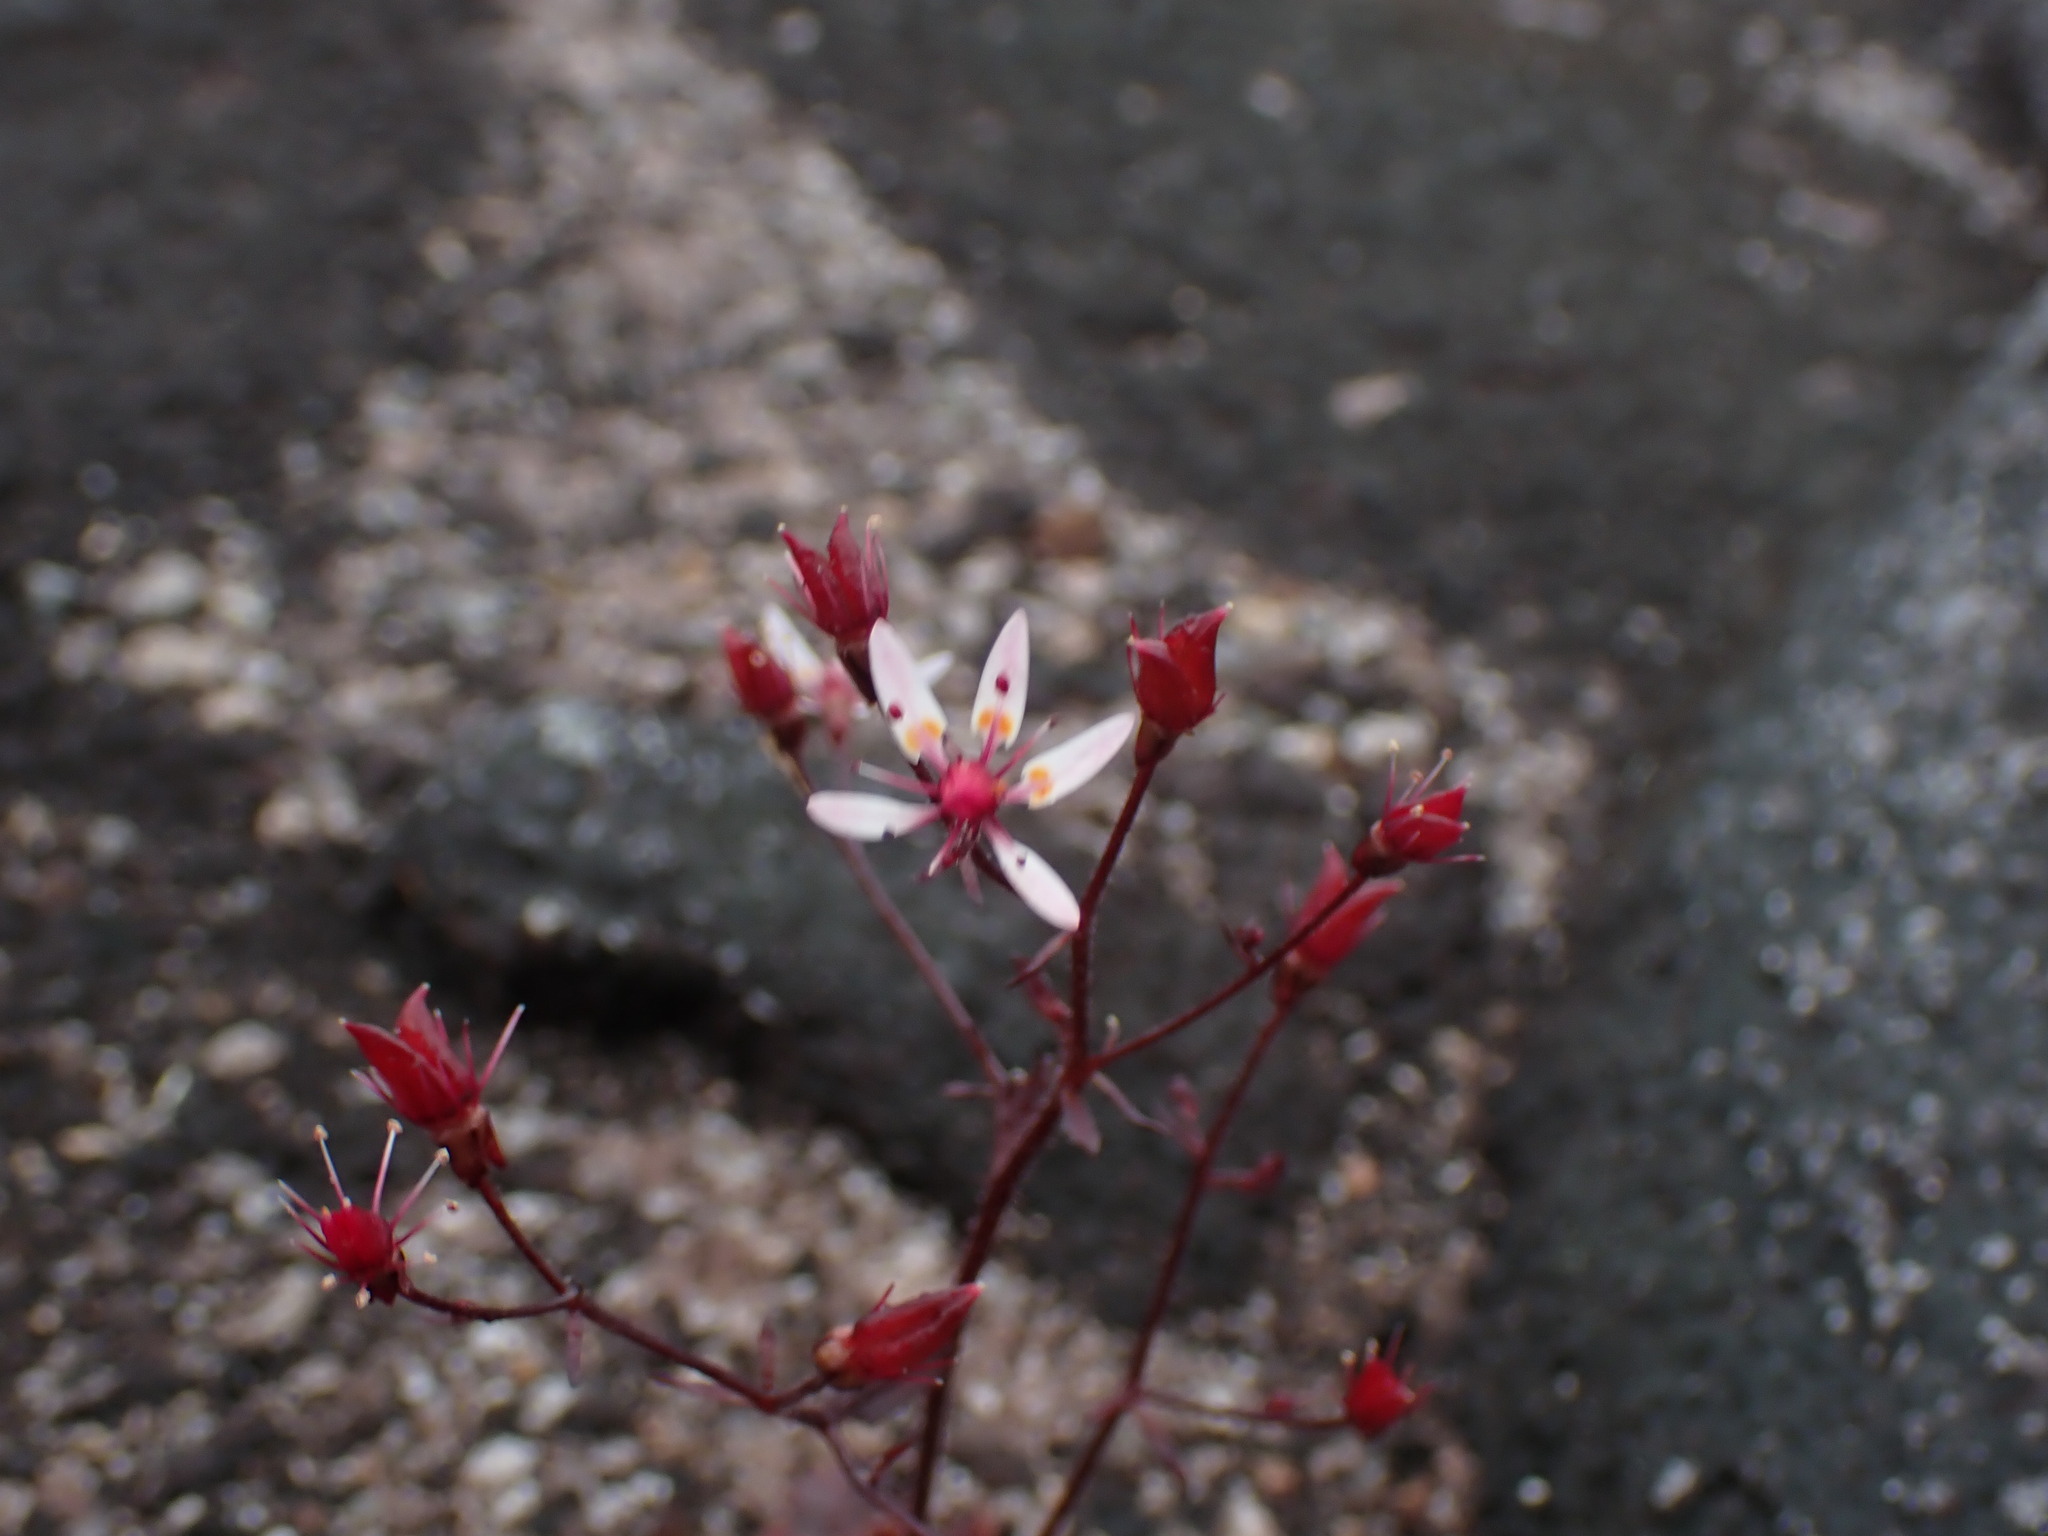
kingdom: Plantae
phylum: Tracheophyta
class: Magnoliopsida
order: Saxifragales
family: Saxifragaceae
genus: Micranthes
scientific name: Micranthes ferruginea
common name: Rusty saxifrage
